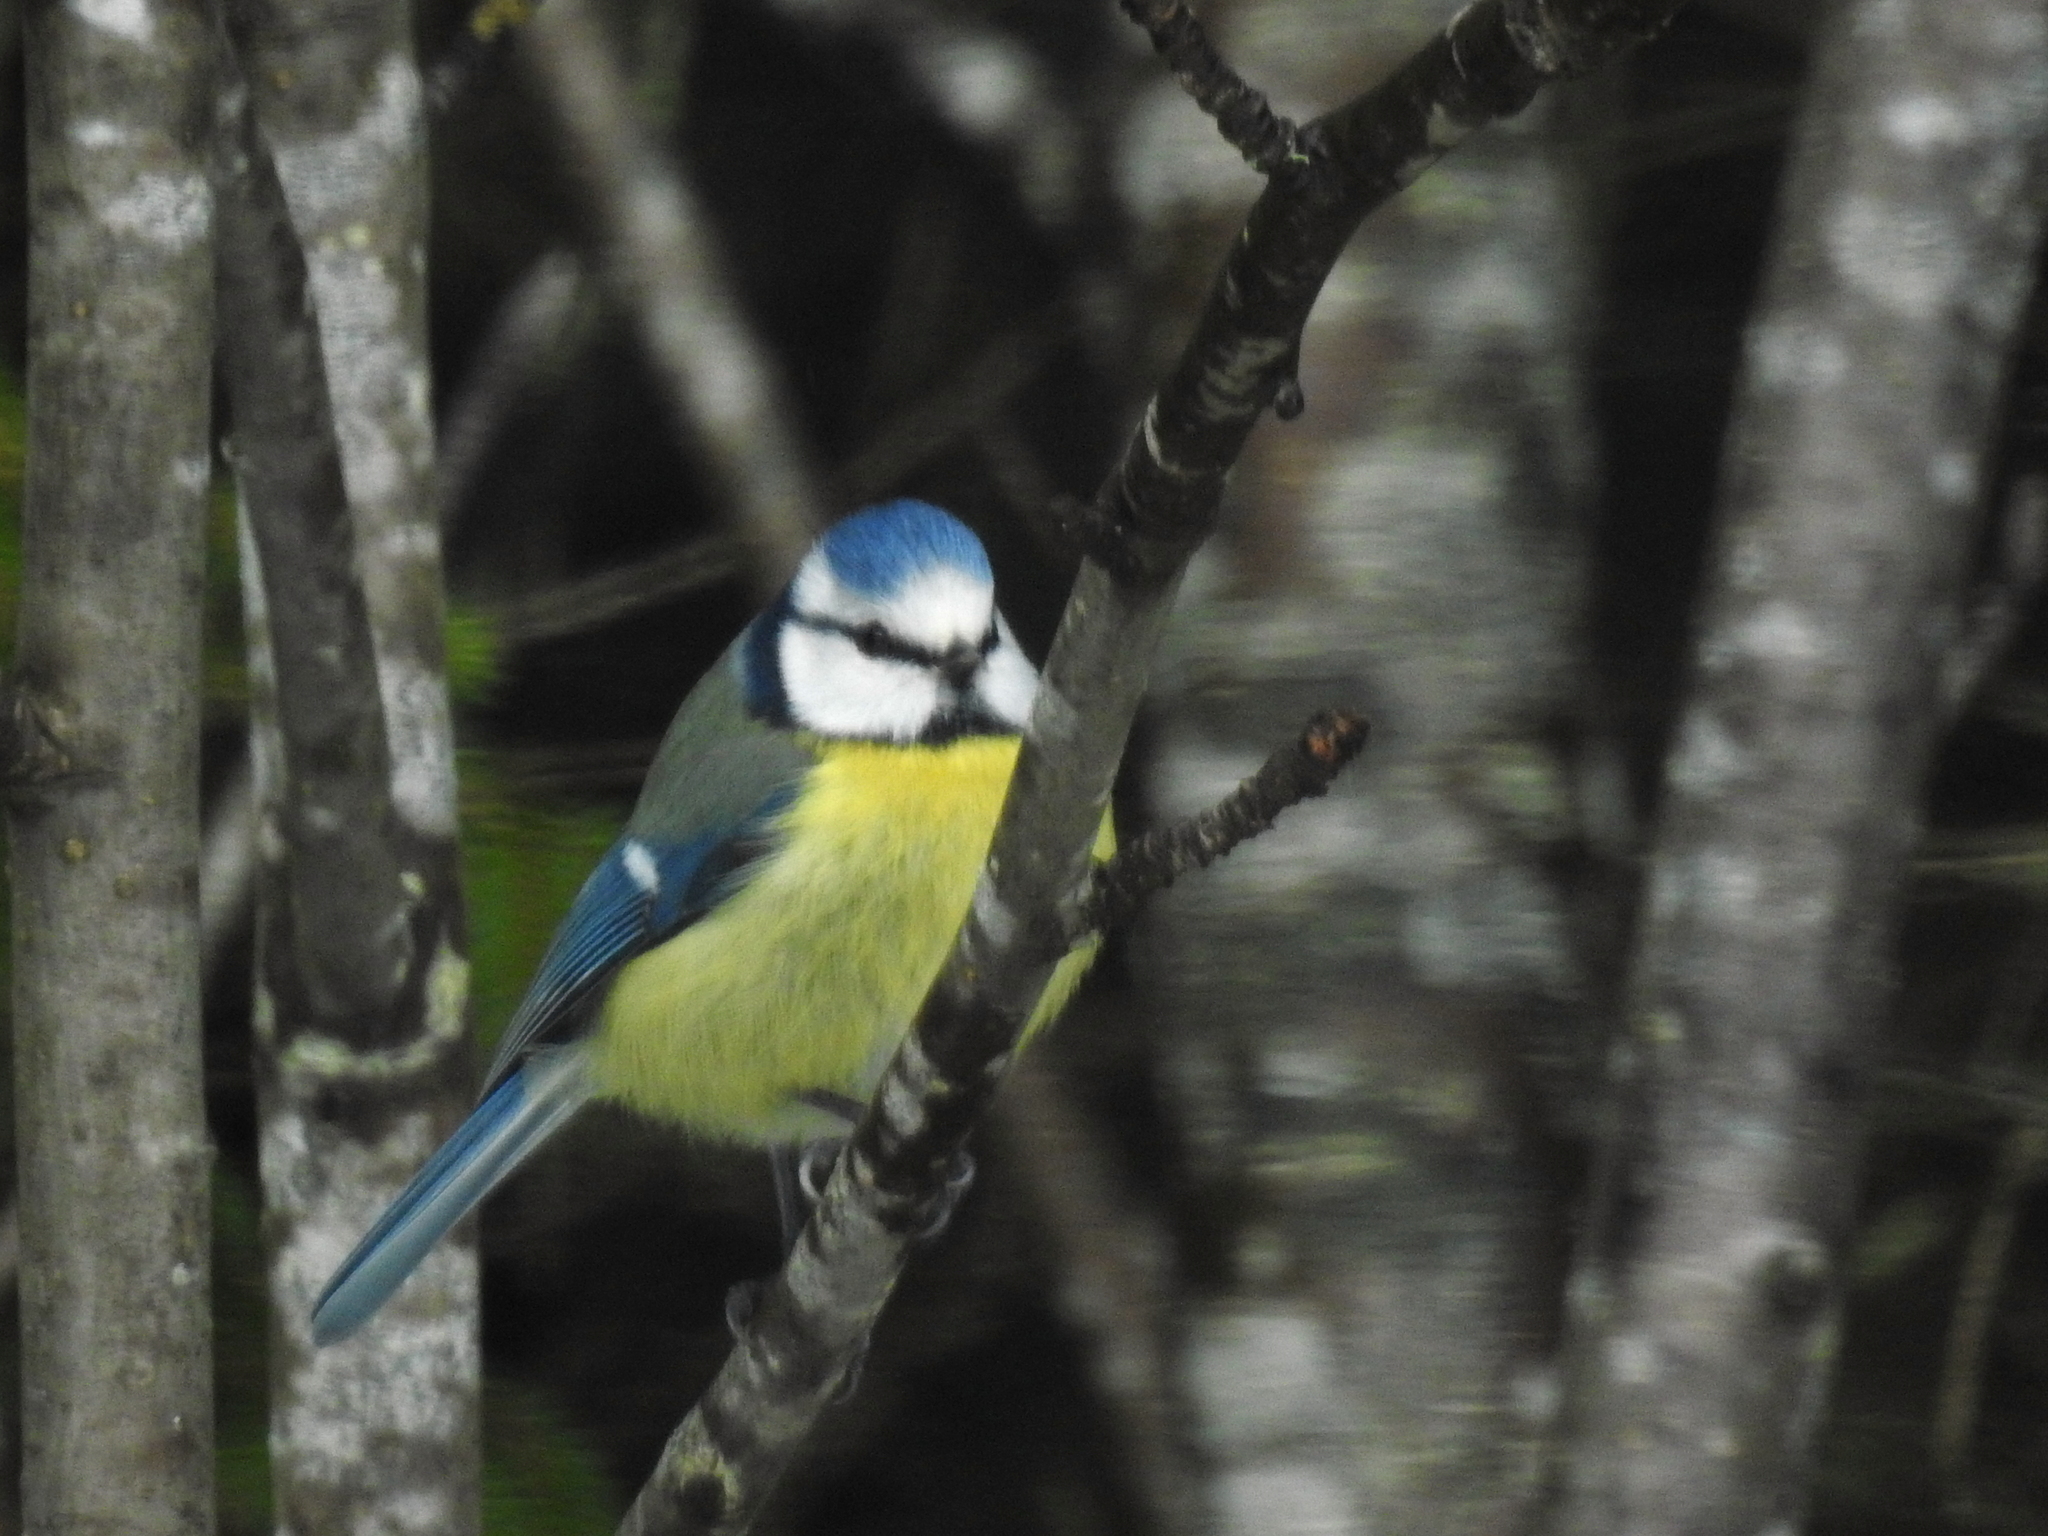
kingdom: Animalia
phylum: Chordata
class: Aves
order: Passeriformes
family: Paridae
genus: Cyanistes
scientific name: Cyanistes caeruleus
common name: Eurasian blue tit
